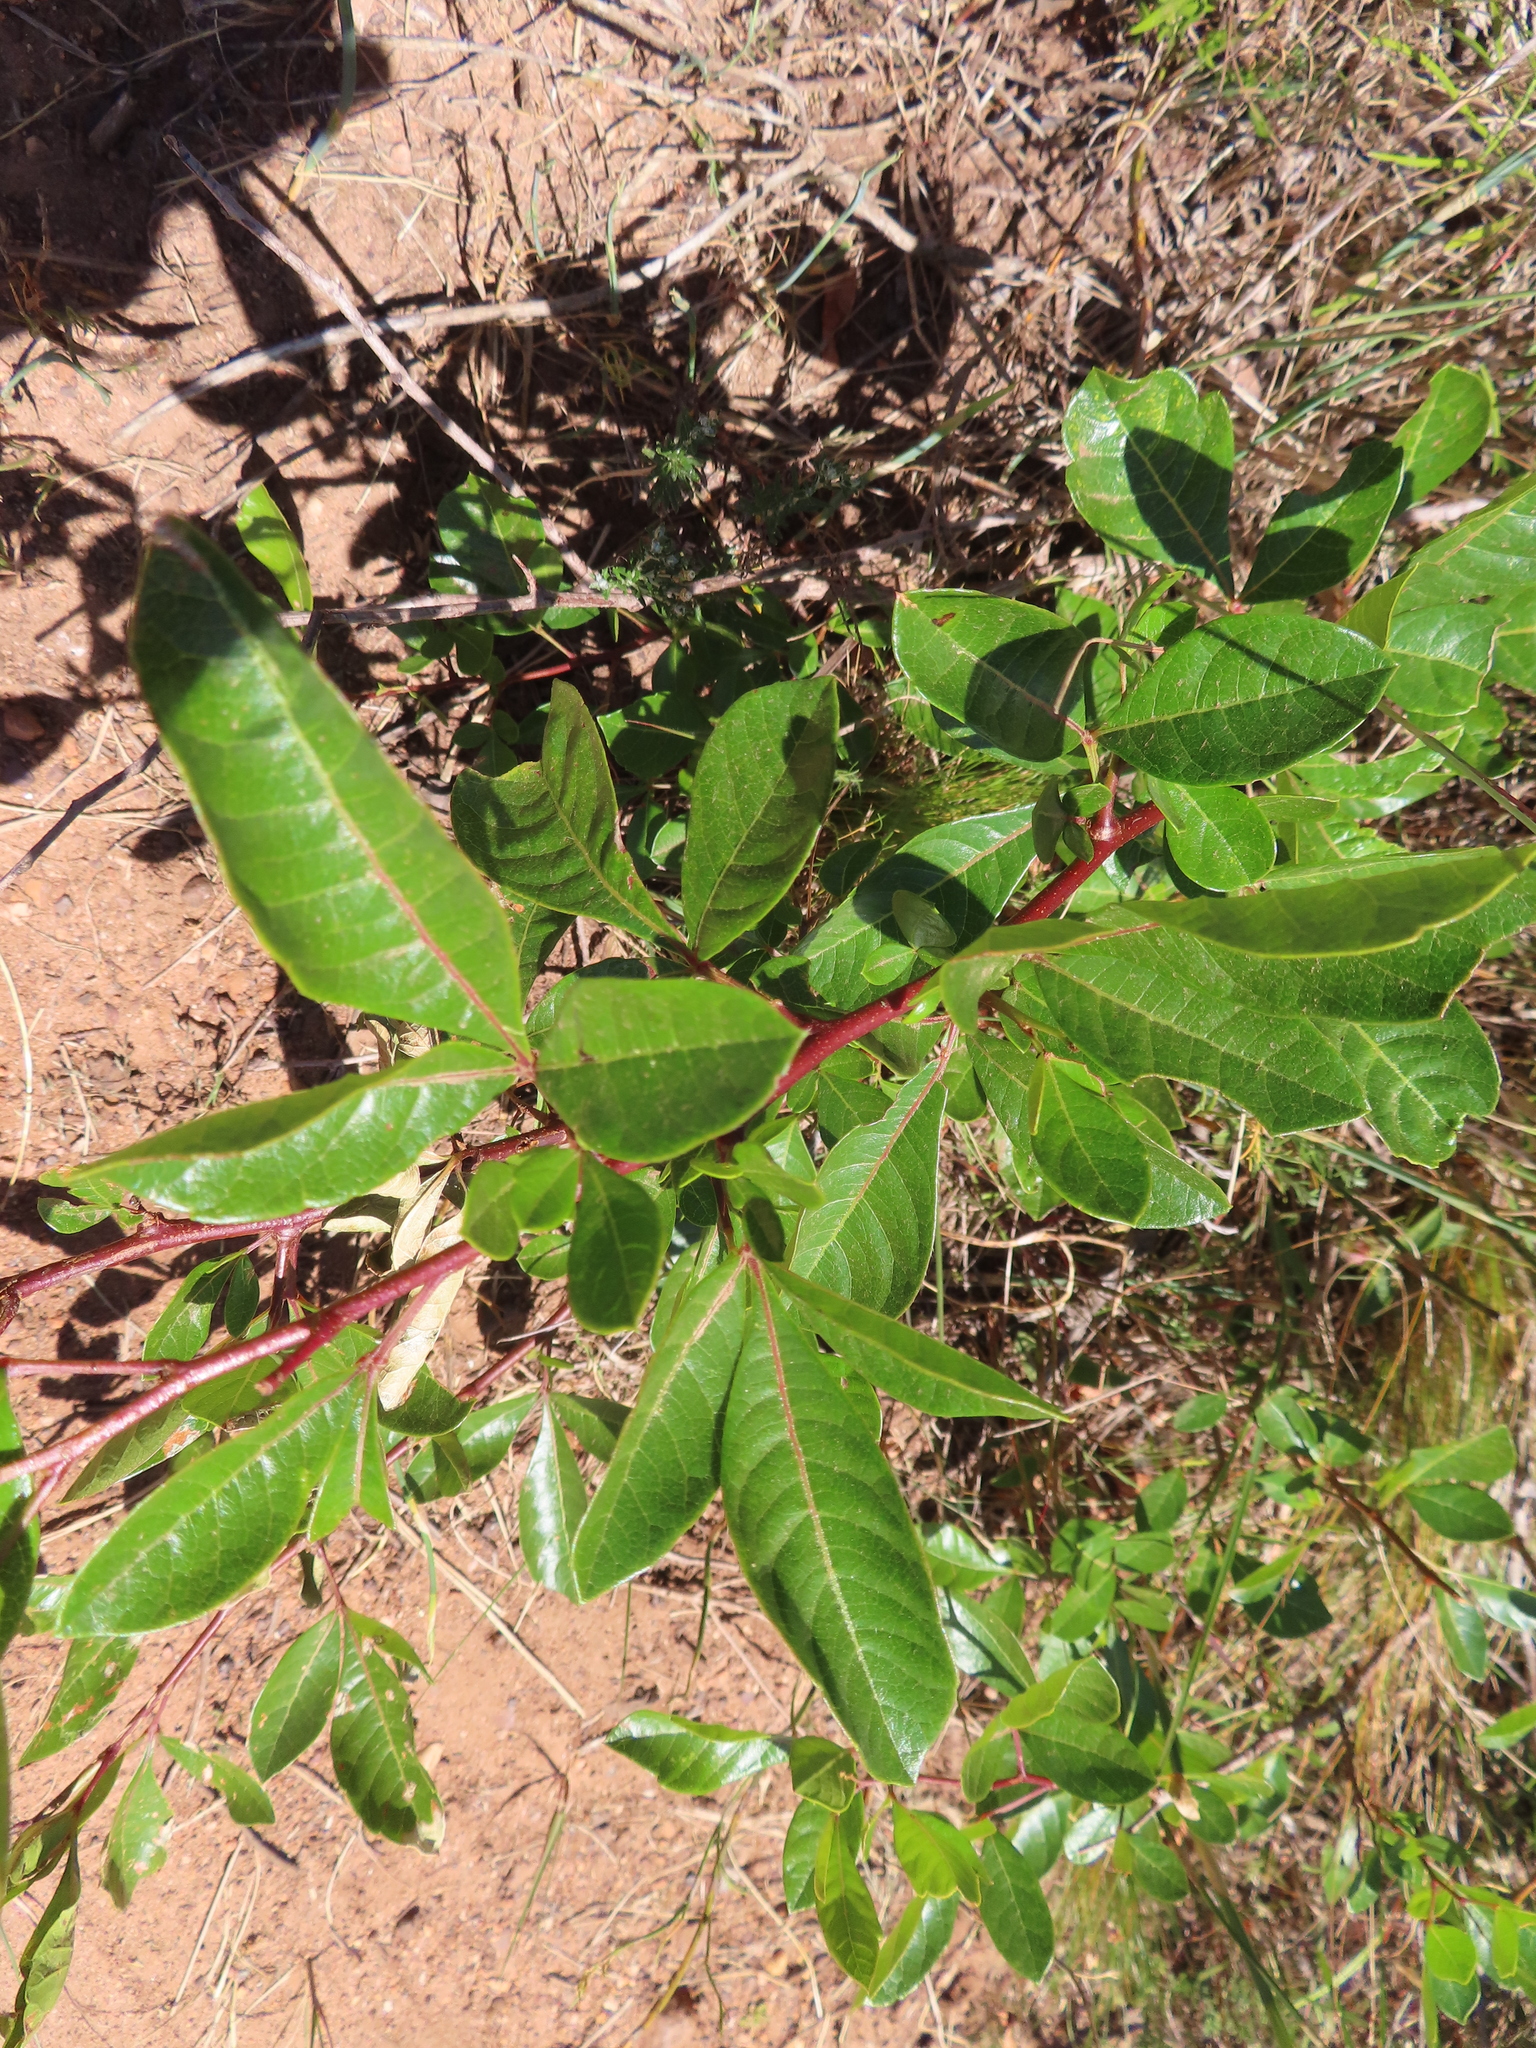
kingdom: Plantae
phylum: Tracheophyta
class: Magnoliopsida
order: Sapindales
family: Anacardiaceae
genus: Searsia
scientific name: Searsia laevigata
